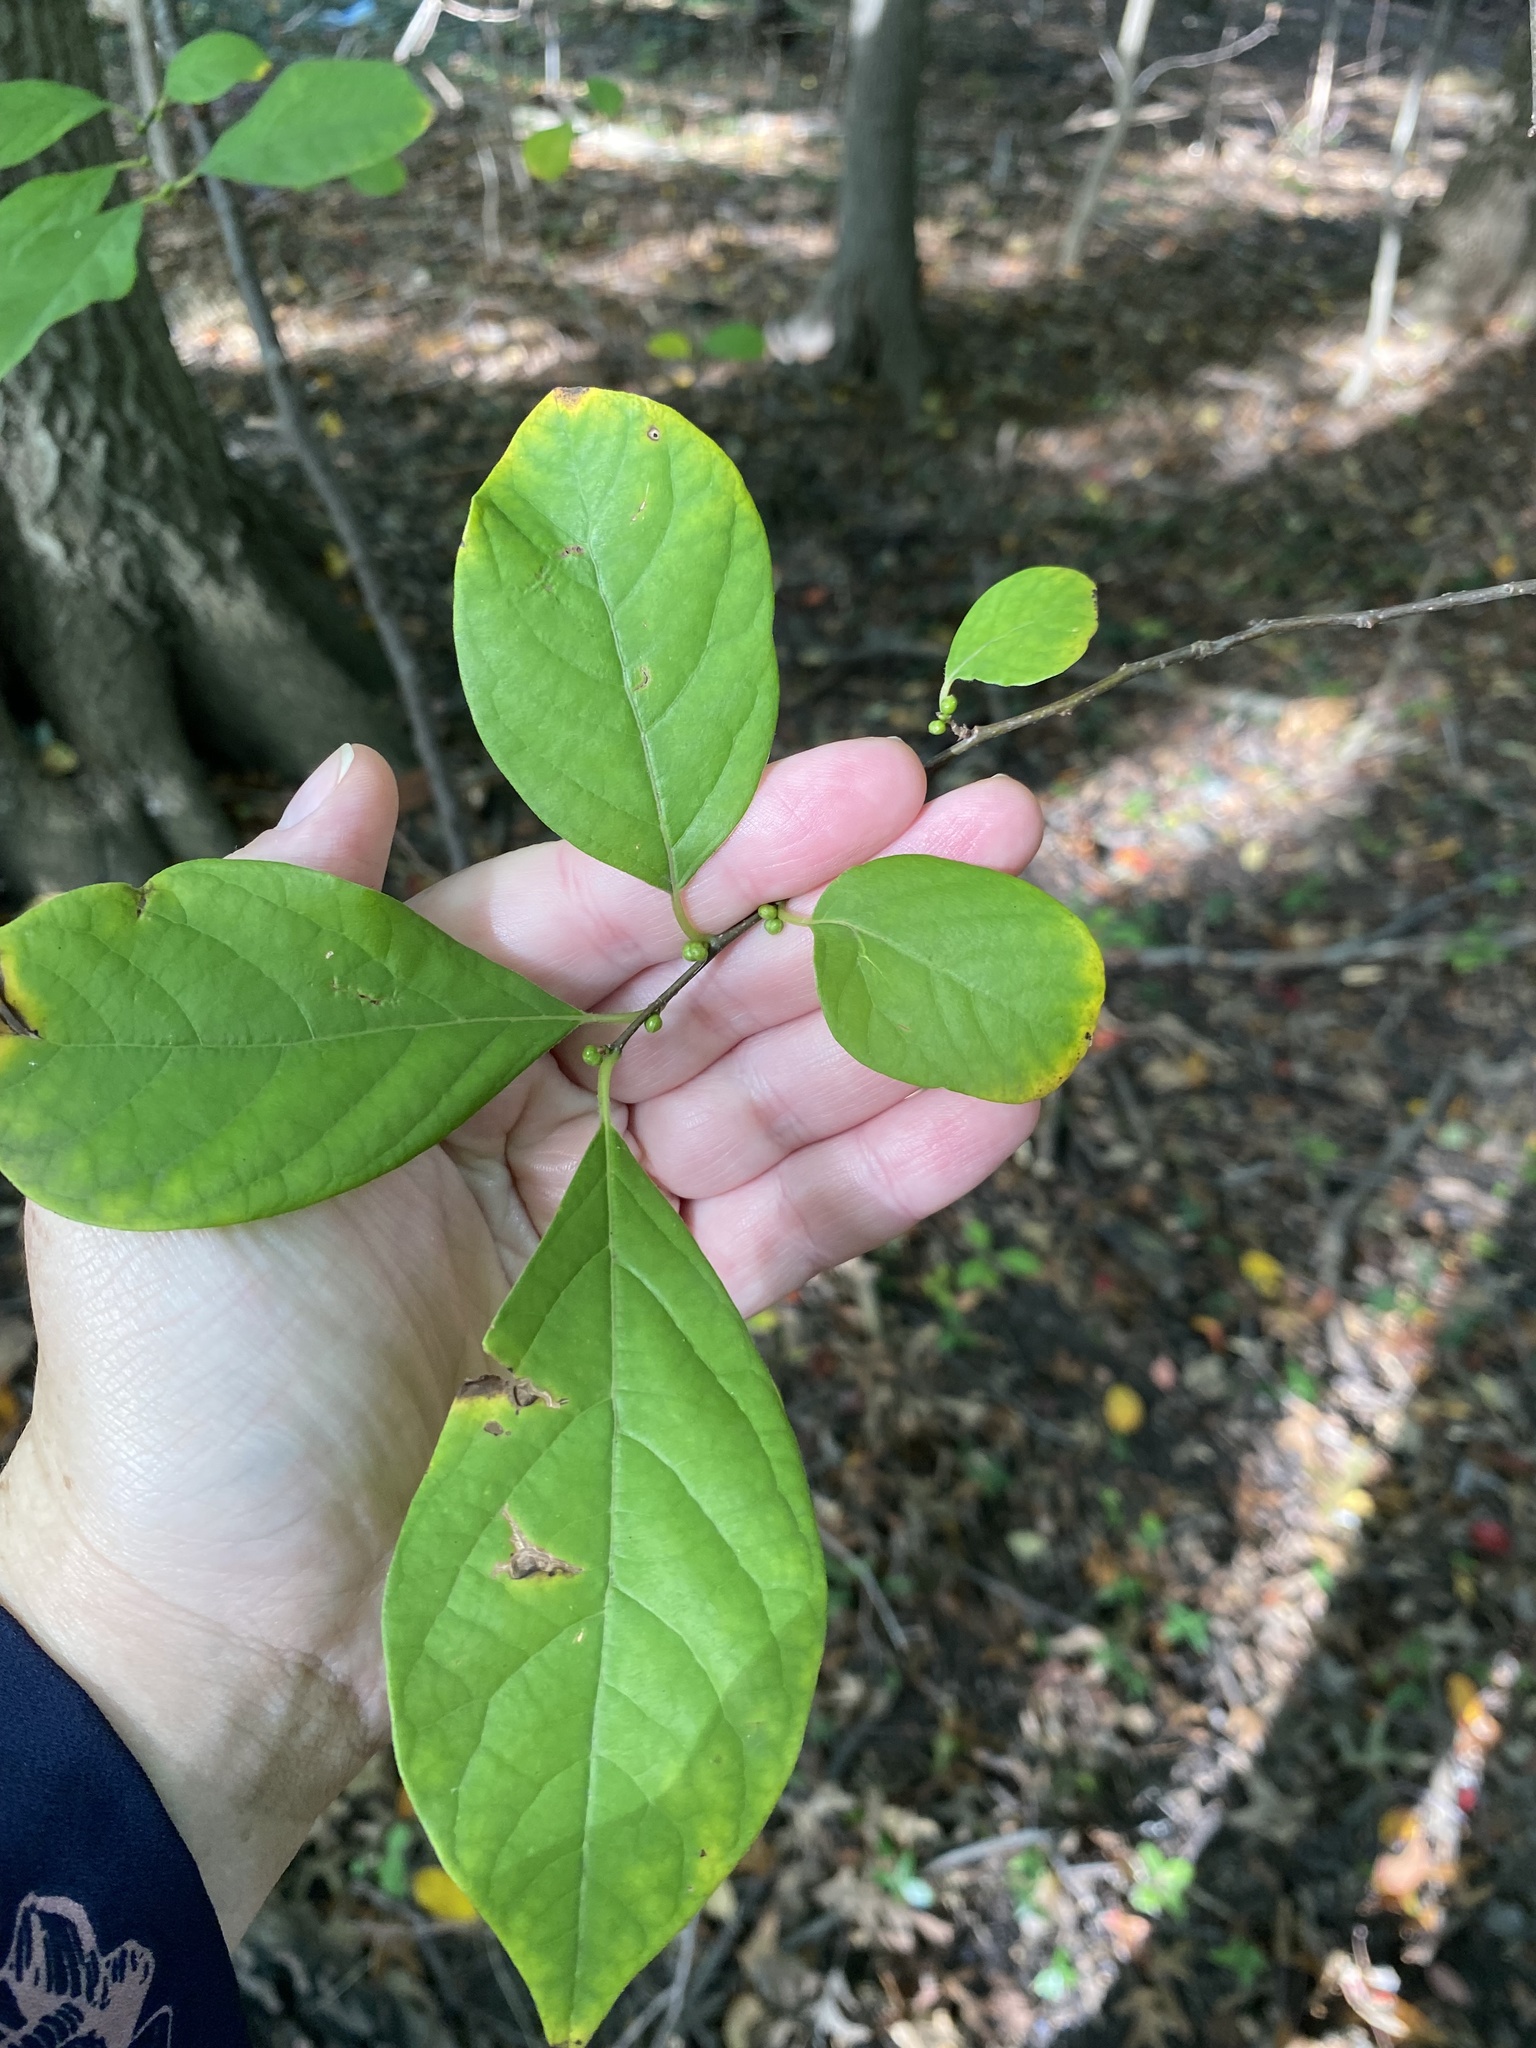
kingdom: Plantae
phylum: Tracheophyta
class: Magnoliopsida
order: Laurales
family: Lauraceae
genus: Lindera
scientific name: Lindera benzoin
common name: Spicebush
